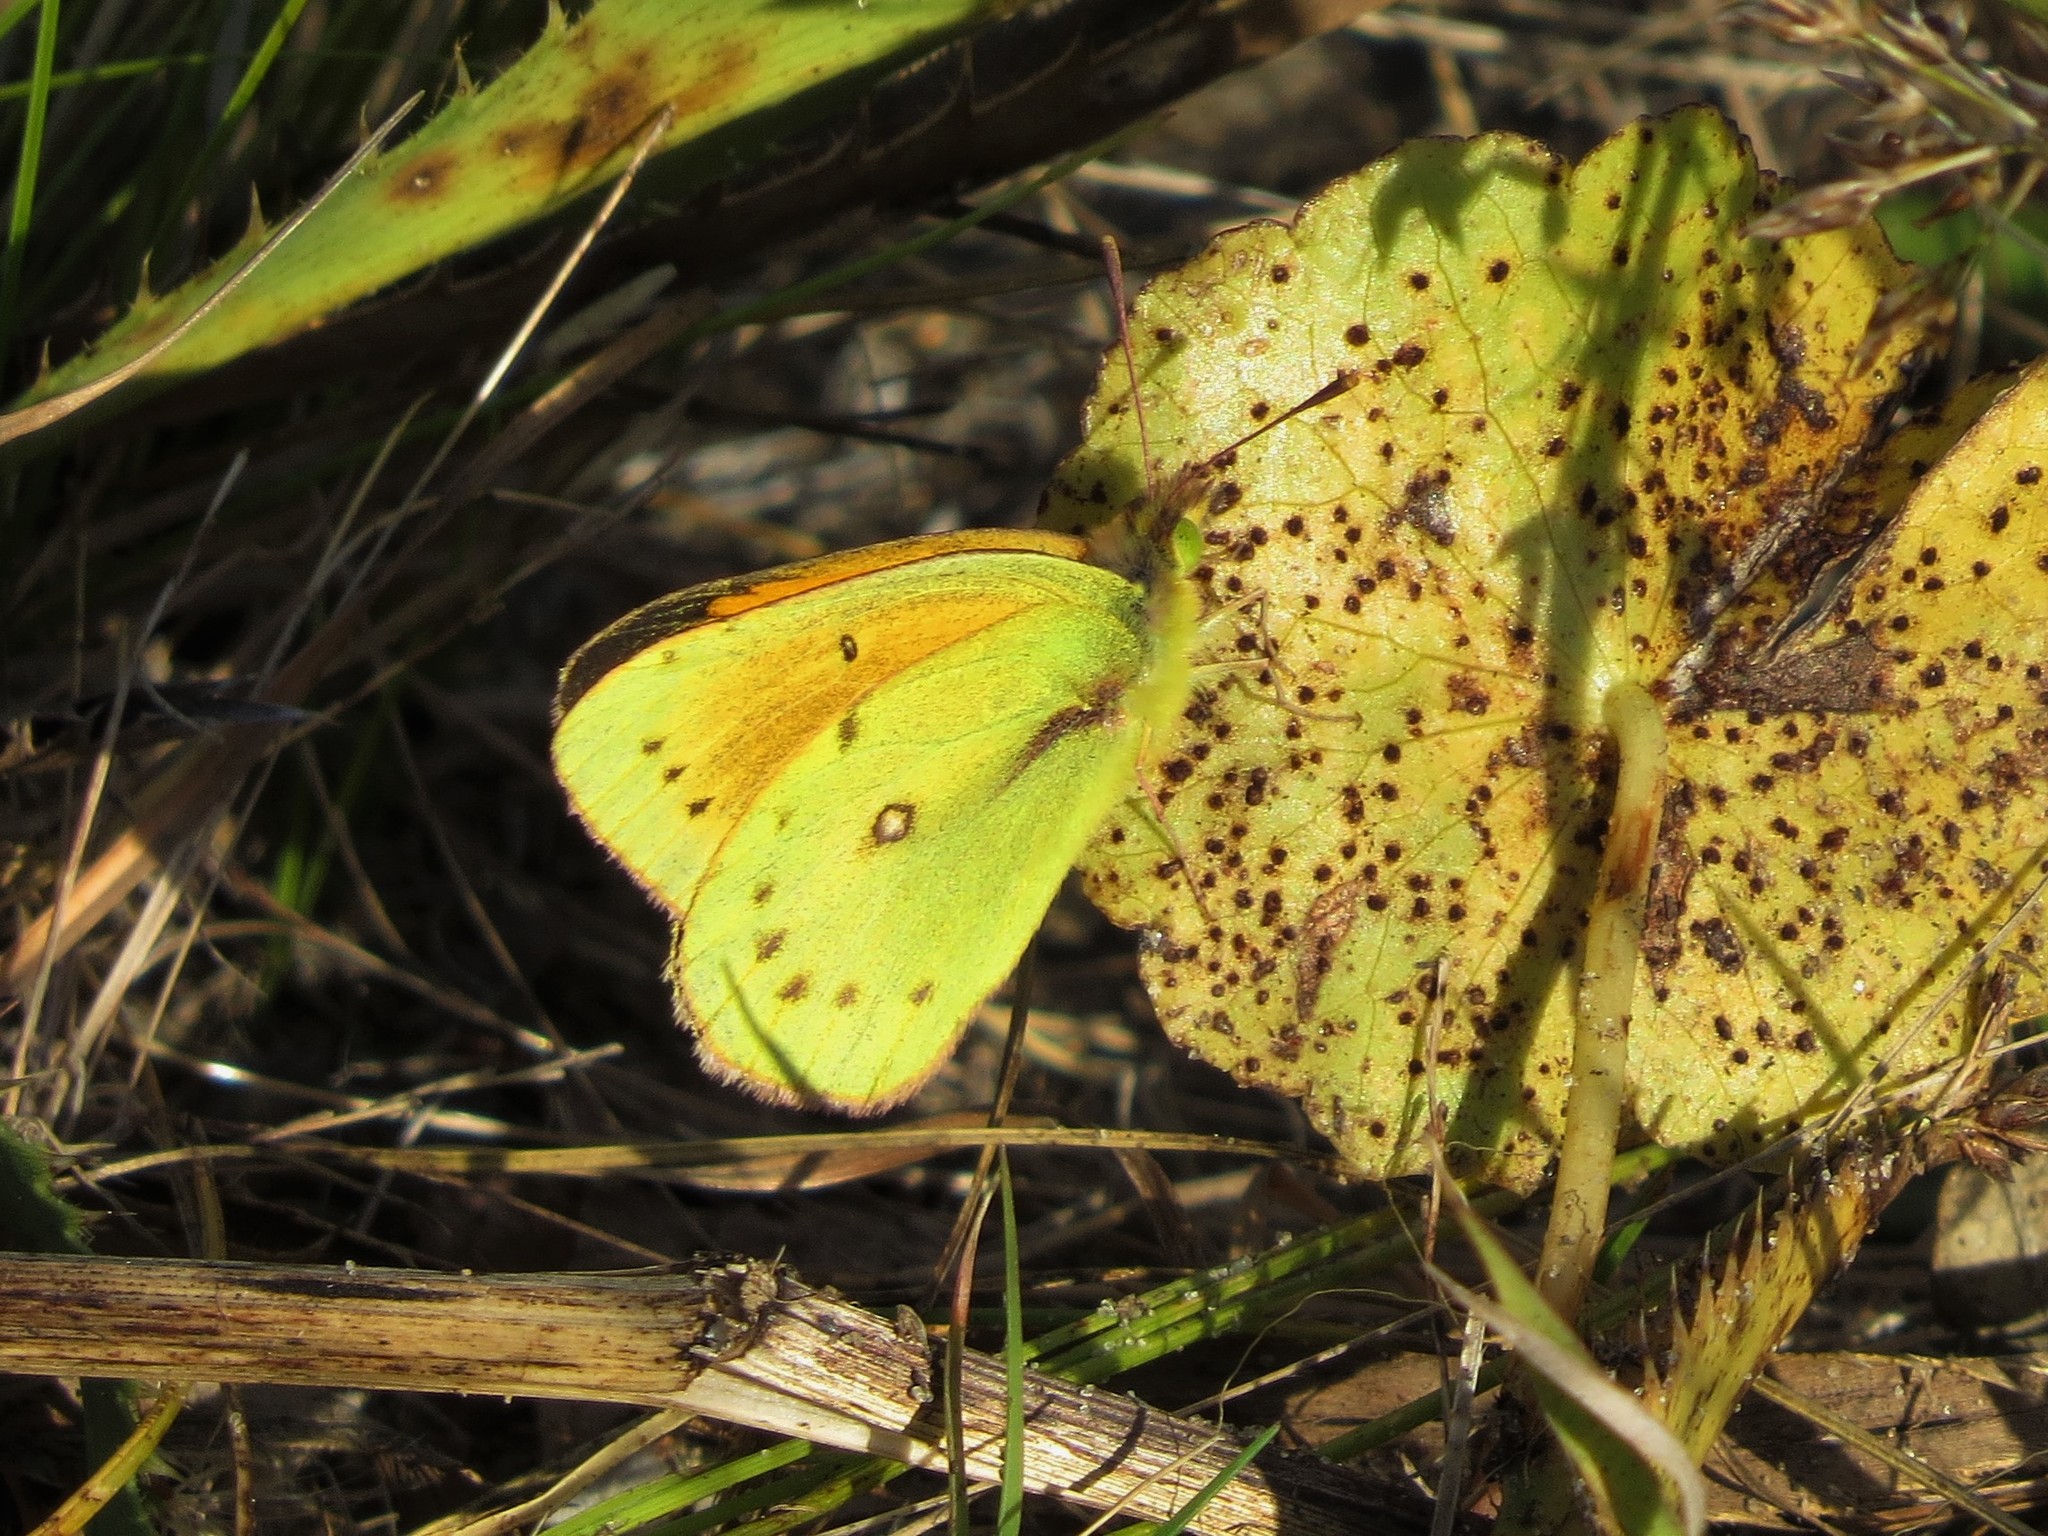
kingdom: Animalia
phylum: Arthropoda
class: Insecta
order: Lepidoptera
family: Pieridae
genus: Colias
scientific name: Colias lesbia
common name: Lesbia clouded yellow
